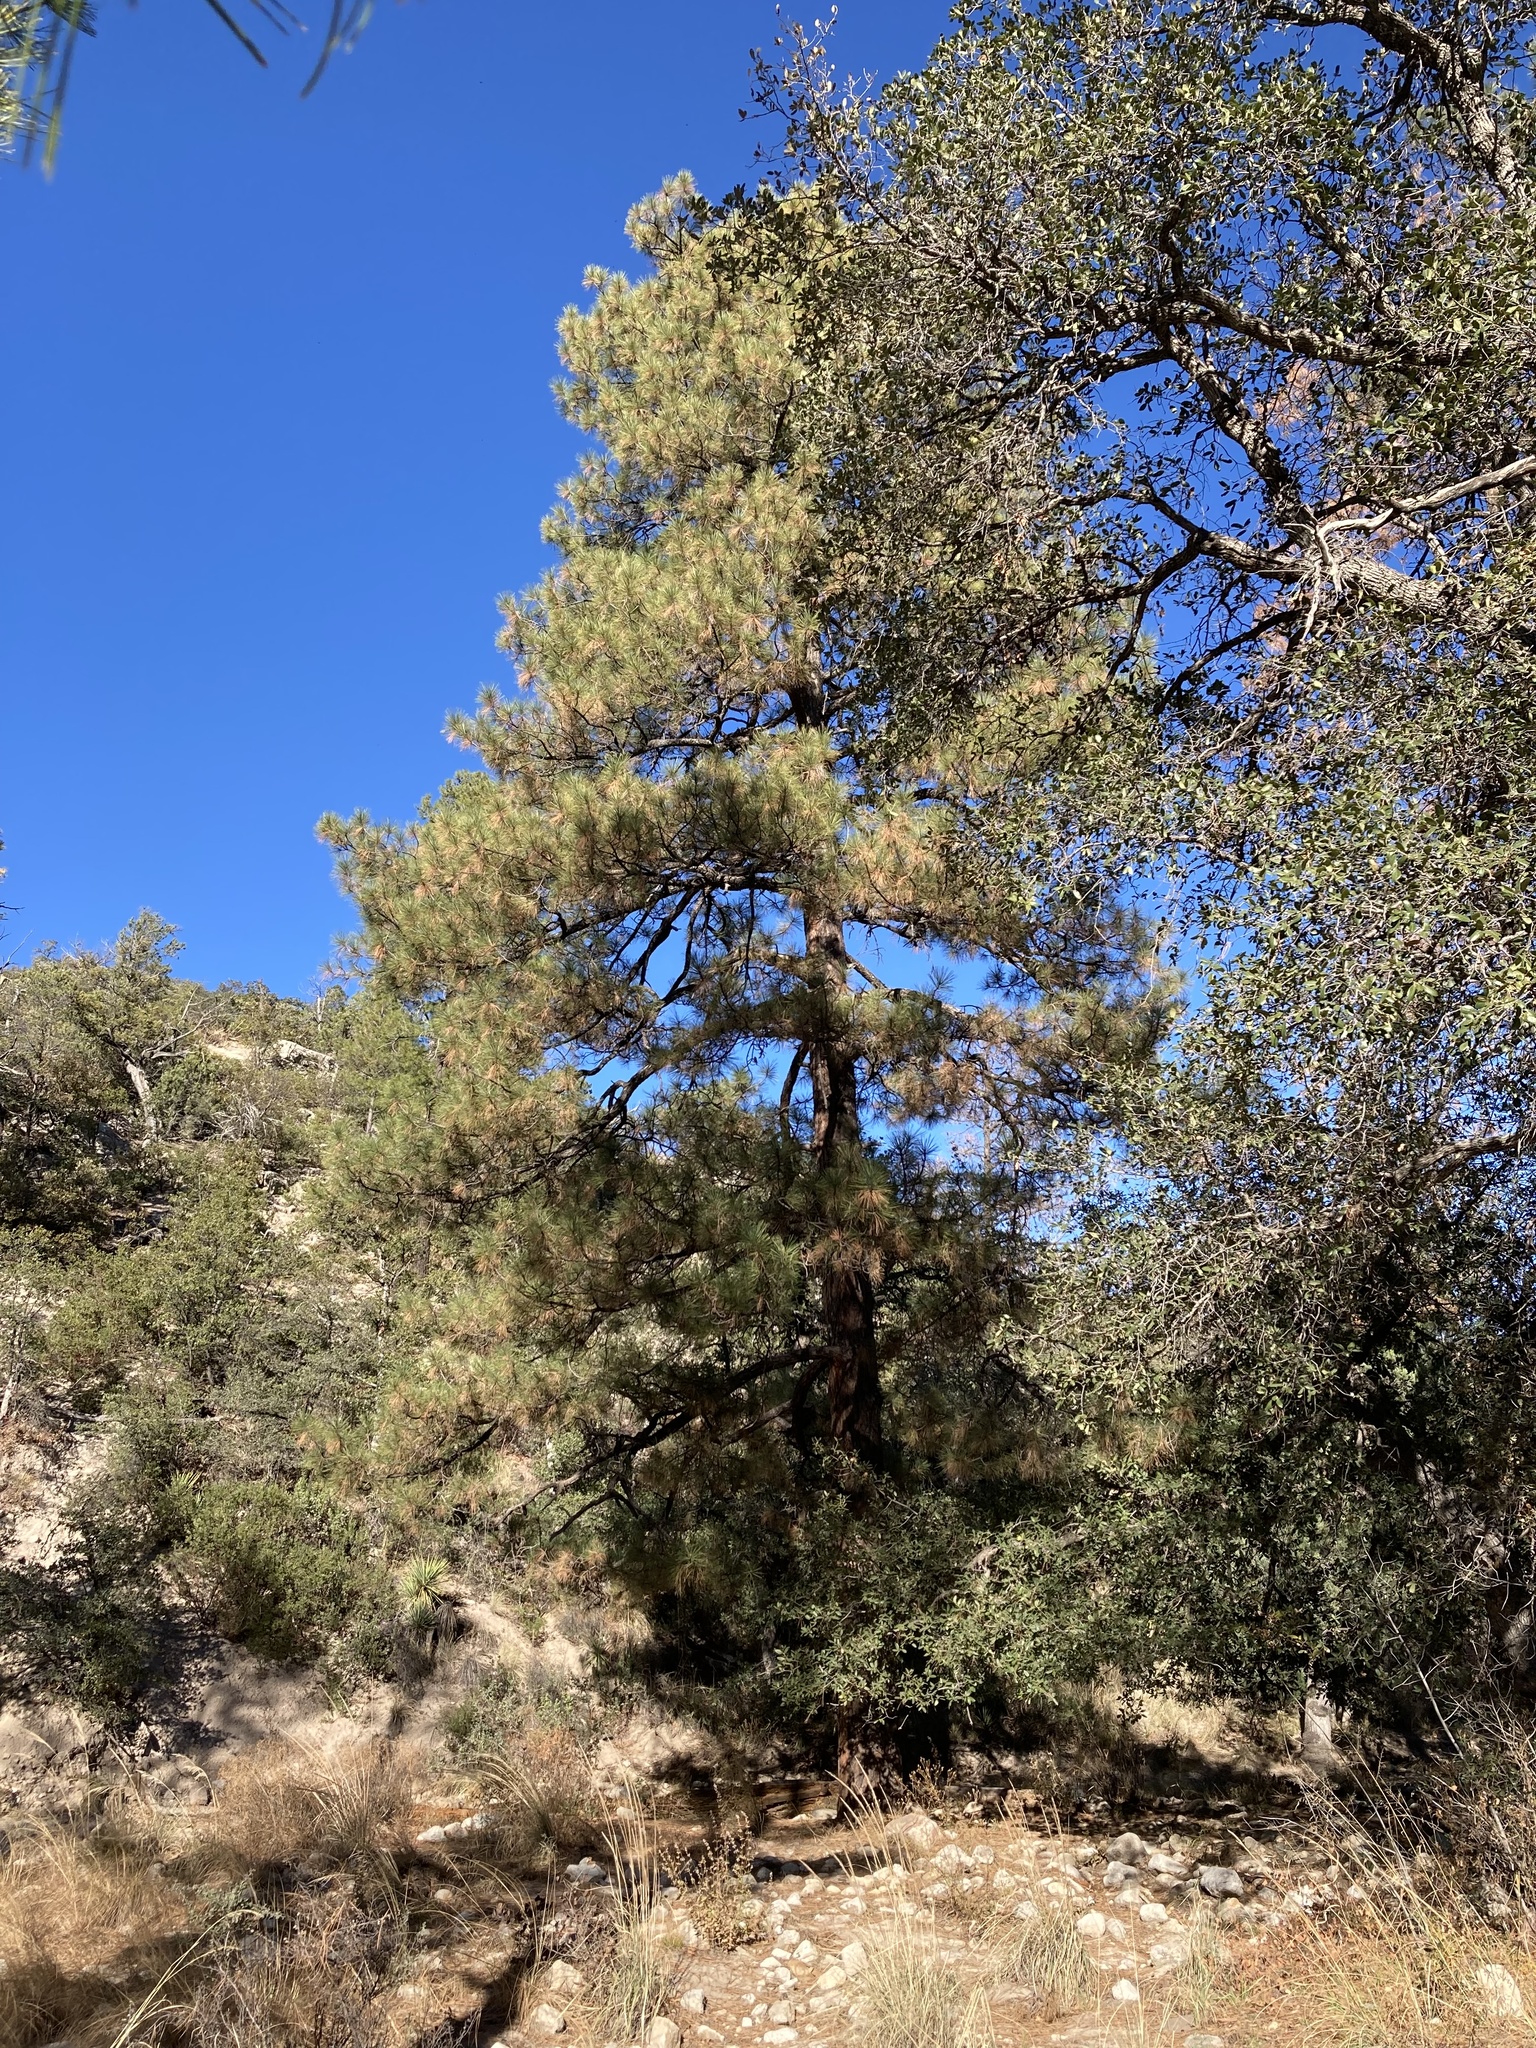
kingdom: Plantae
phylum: Tracheophyta
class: Pinopsida
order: Pinales
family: Pinaceae
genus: Pinus
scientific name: Pinus ponderosa
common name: Western yellow-pine
